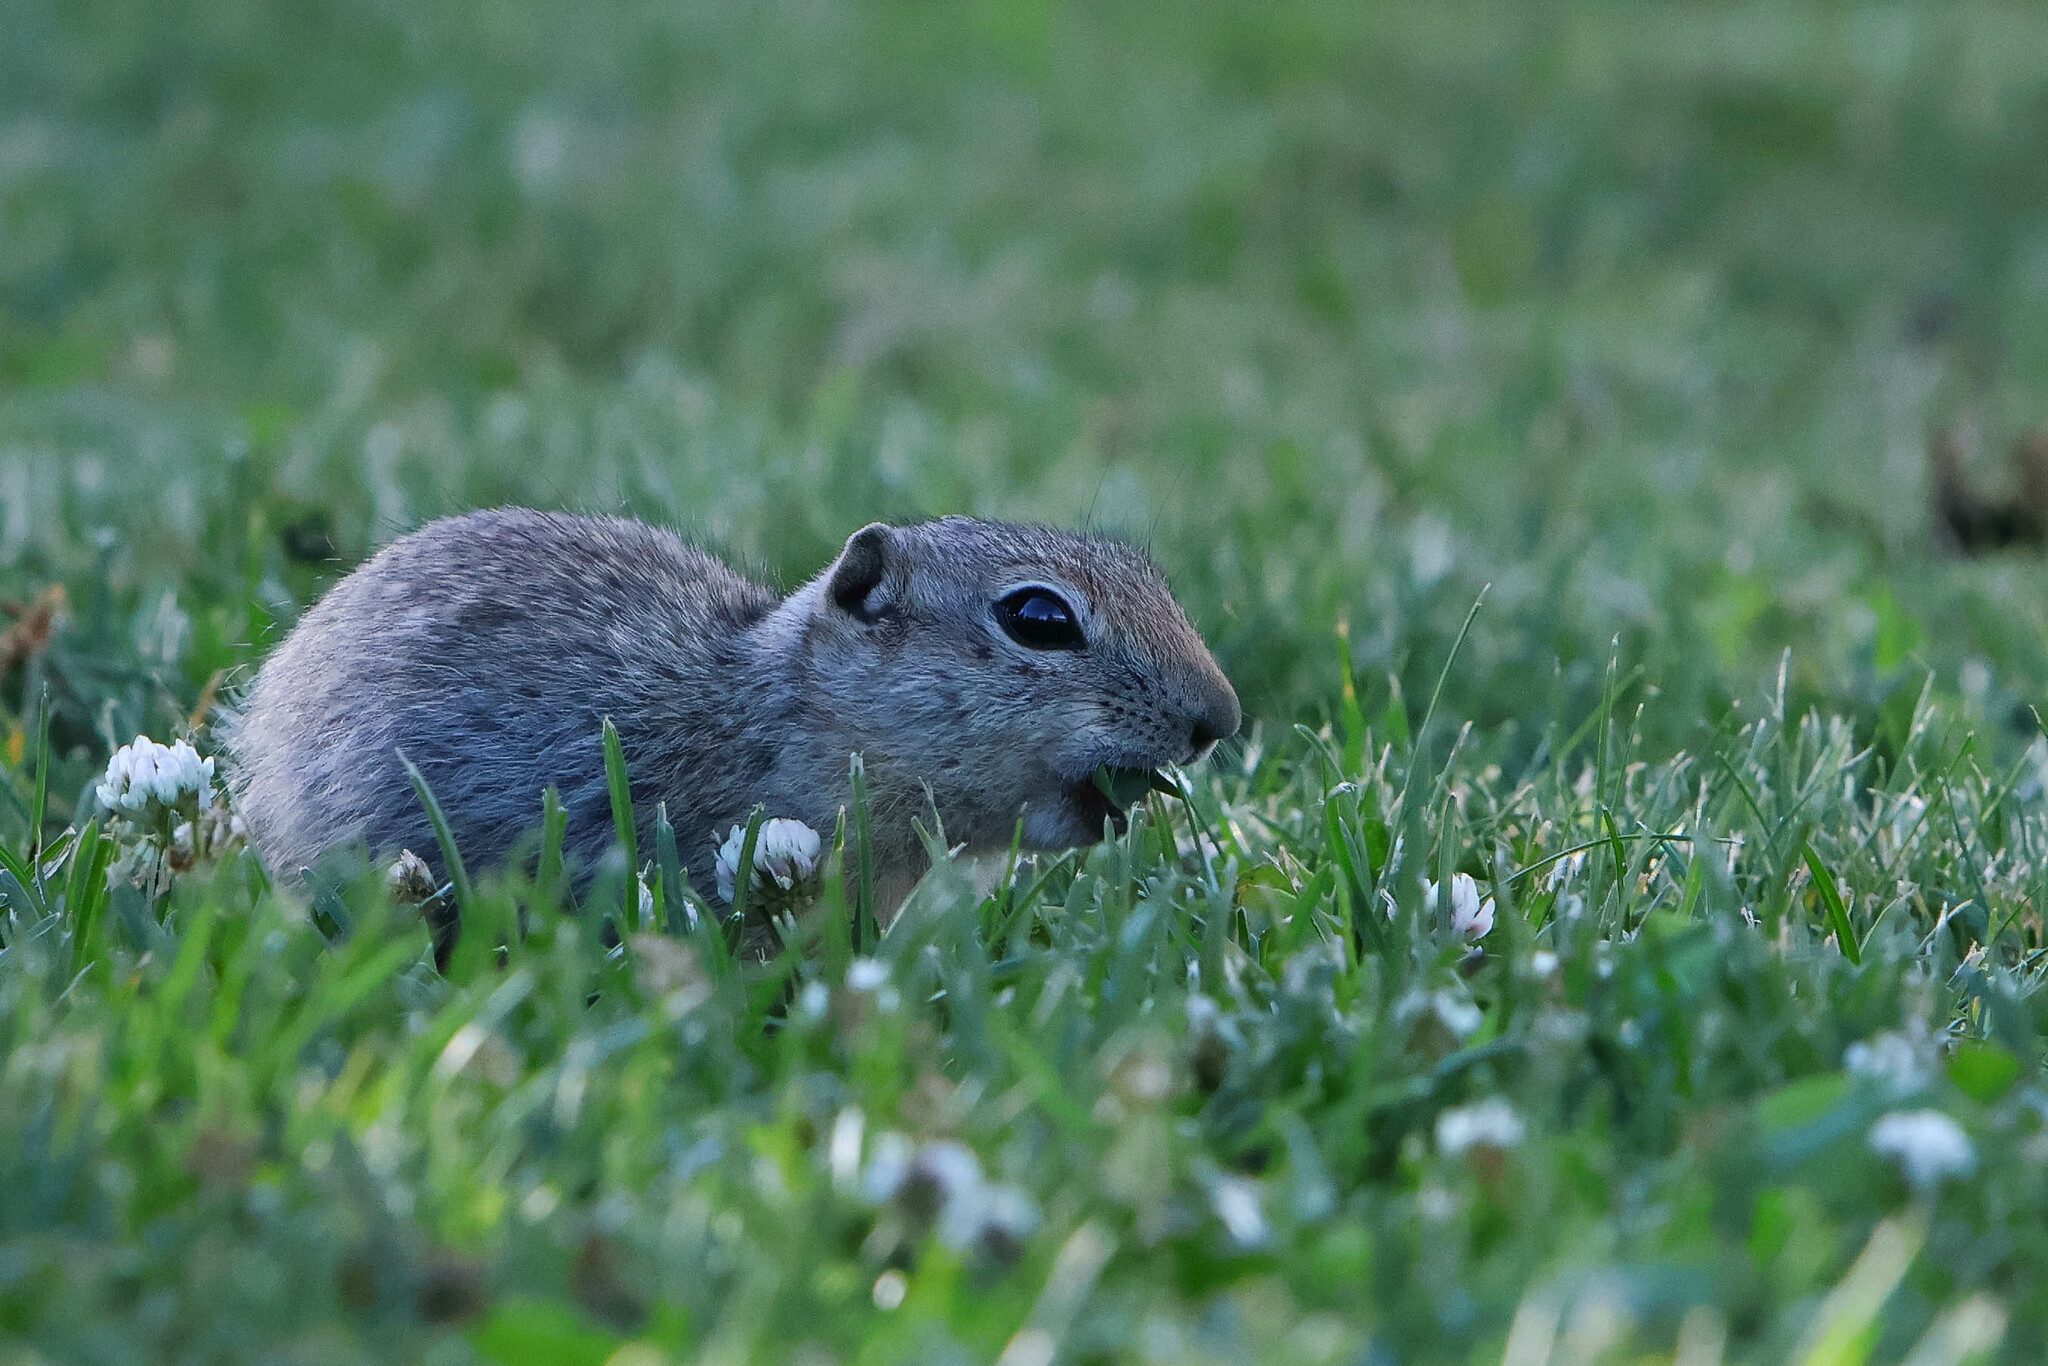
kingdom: Animalia
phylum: Chordata
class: Mammalia
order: Rodentia
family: Sciuridae
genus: Urocitellus
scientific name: Urocitellus elegans
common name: Wyoming ground squirrel
